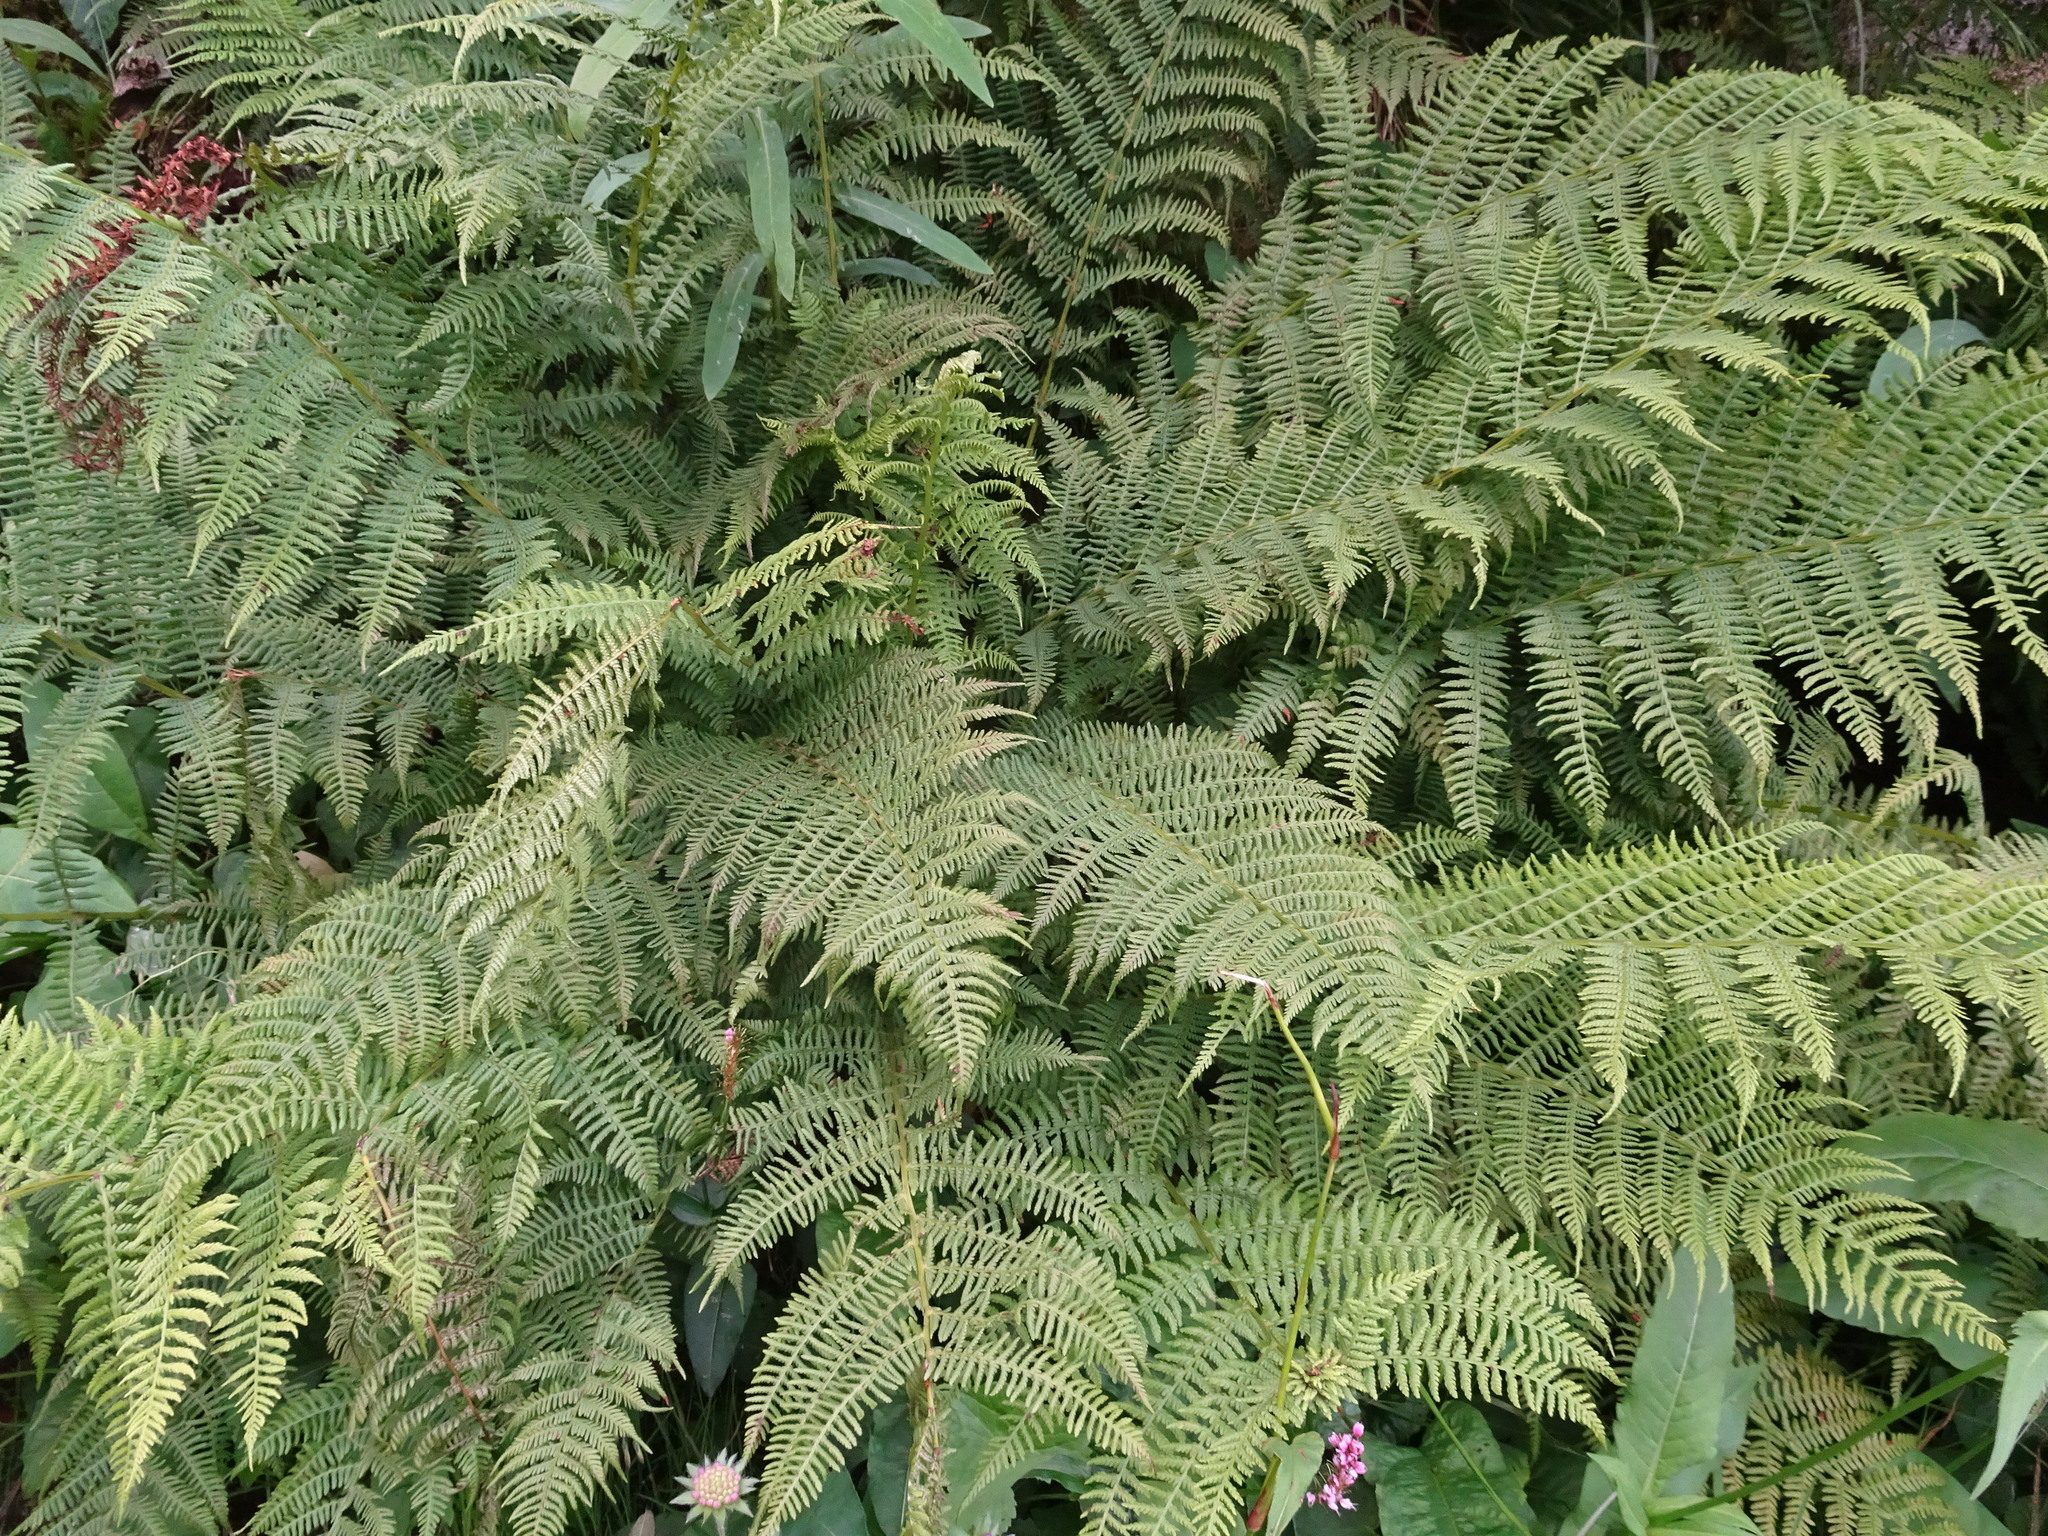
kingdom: Plantae
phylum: Tracheophyta
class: Polypodiopsida
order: Polypodiales
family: Athyriaceae
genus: Athyrium
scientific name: Athyrium filix-femina
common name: Lady fern
